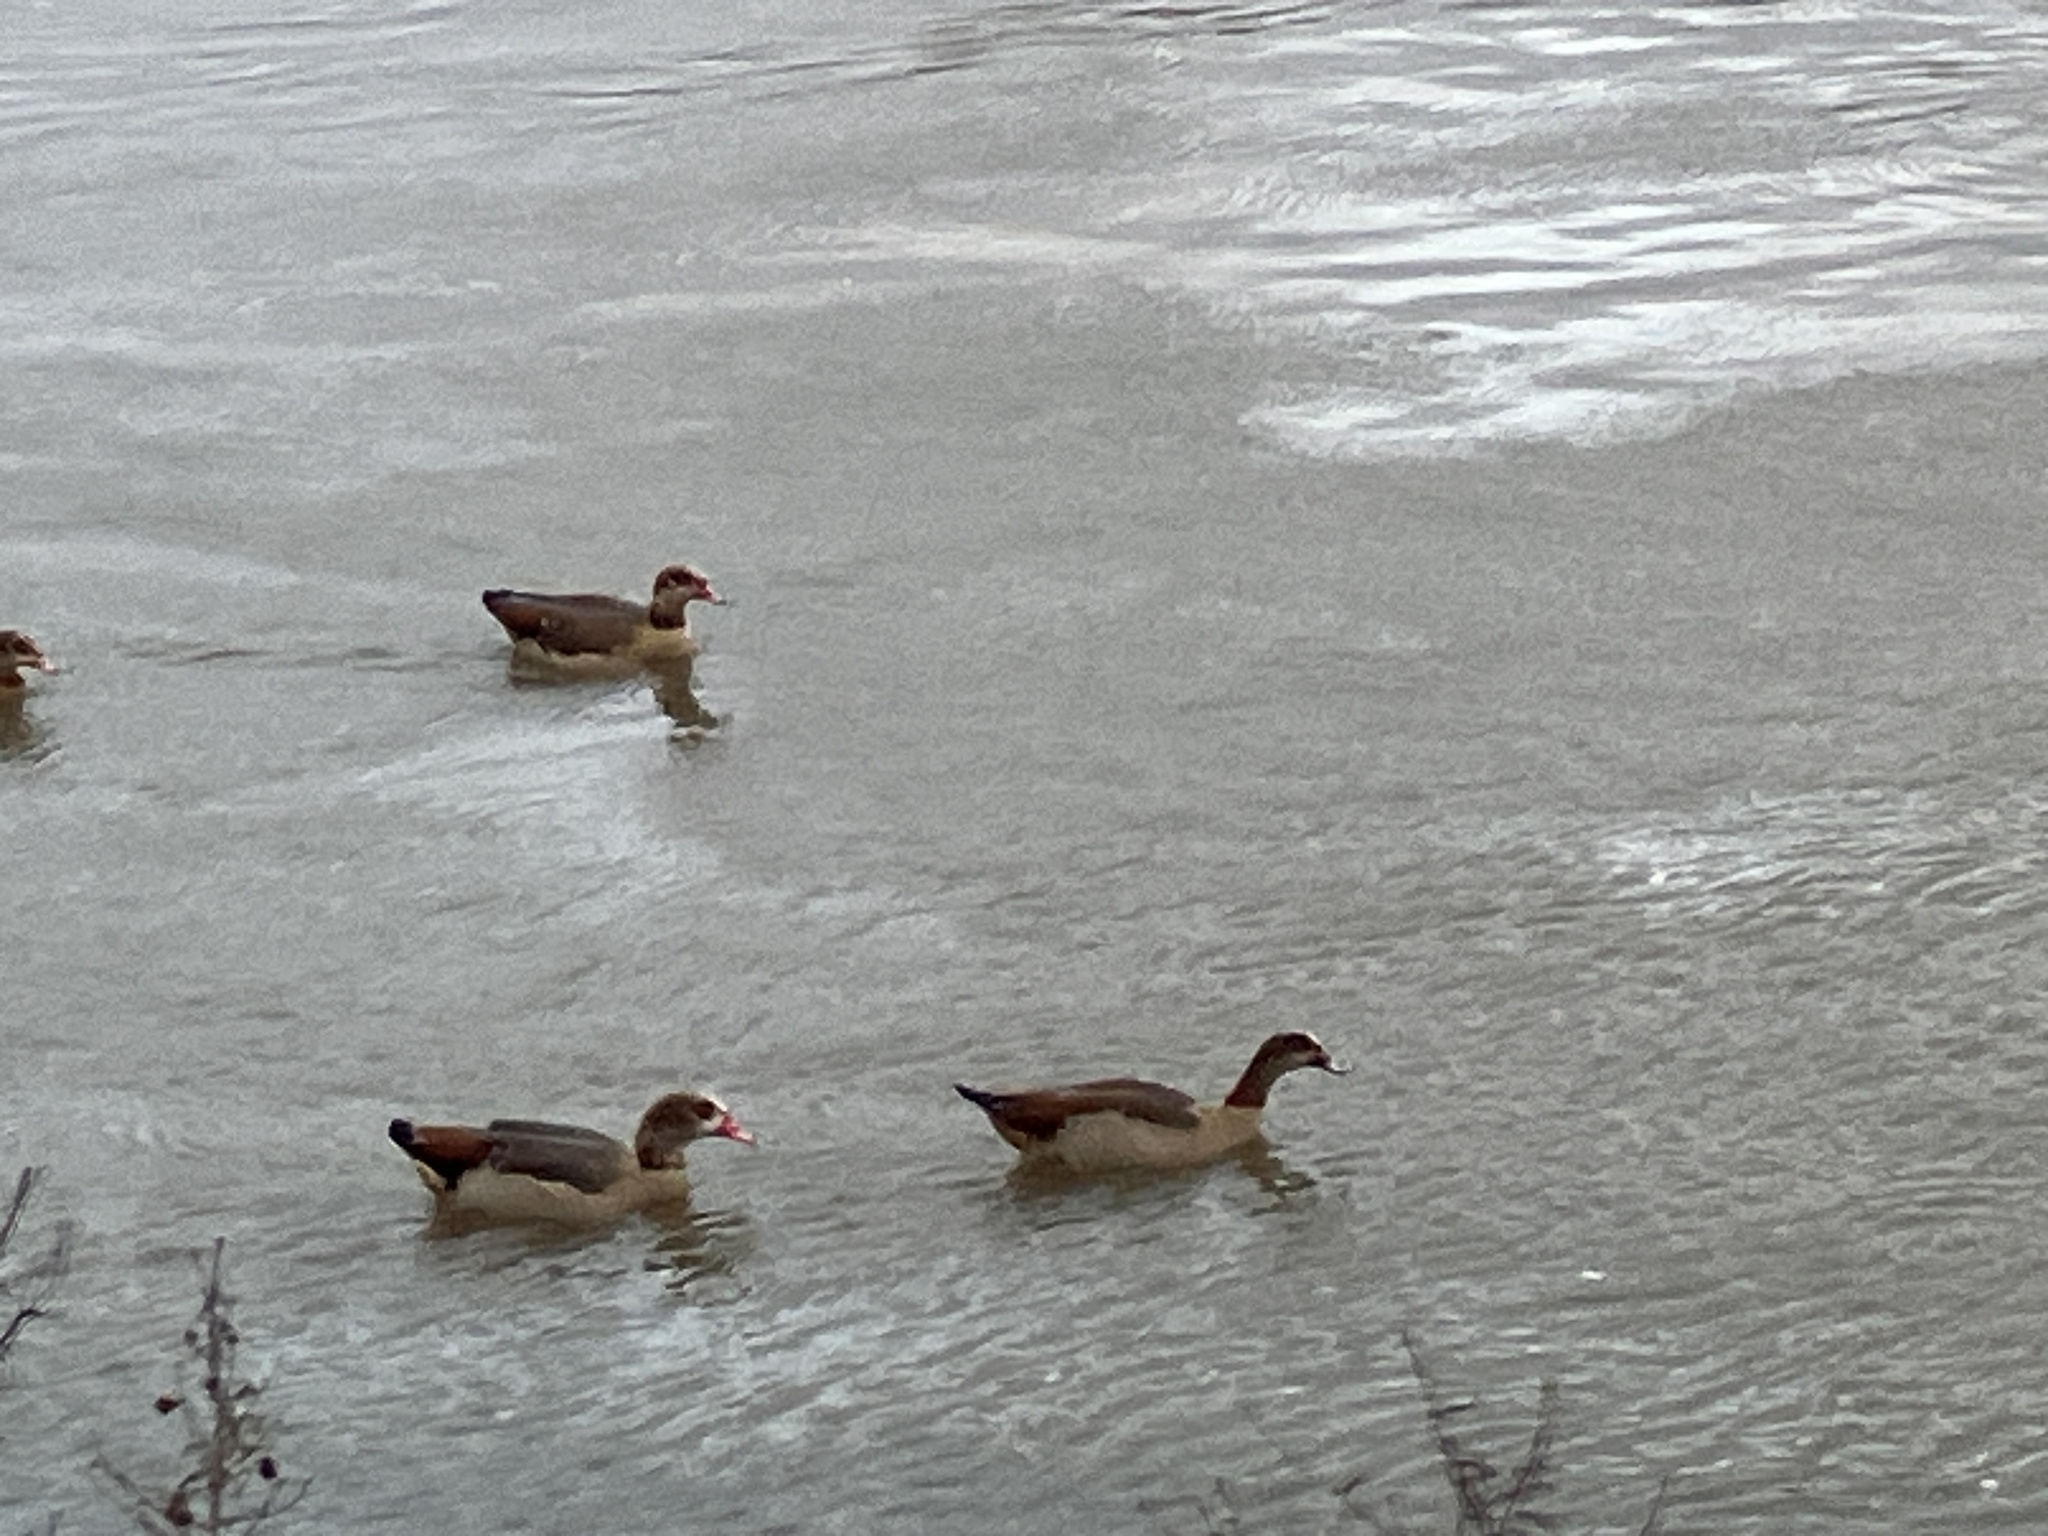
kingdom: Animalia
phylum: Chordata
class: Aves
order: Anseriformes
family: Anatidae
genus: Alopochen
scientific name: Alopochen aegyptiaca
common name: Egyptian goose
